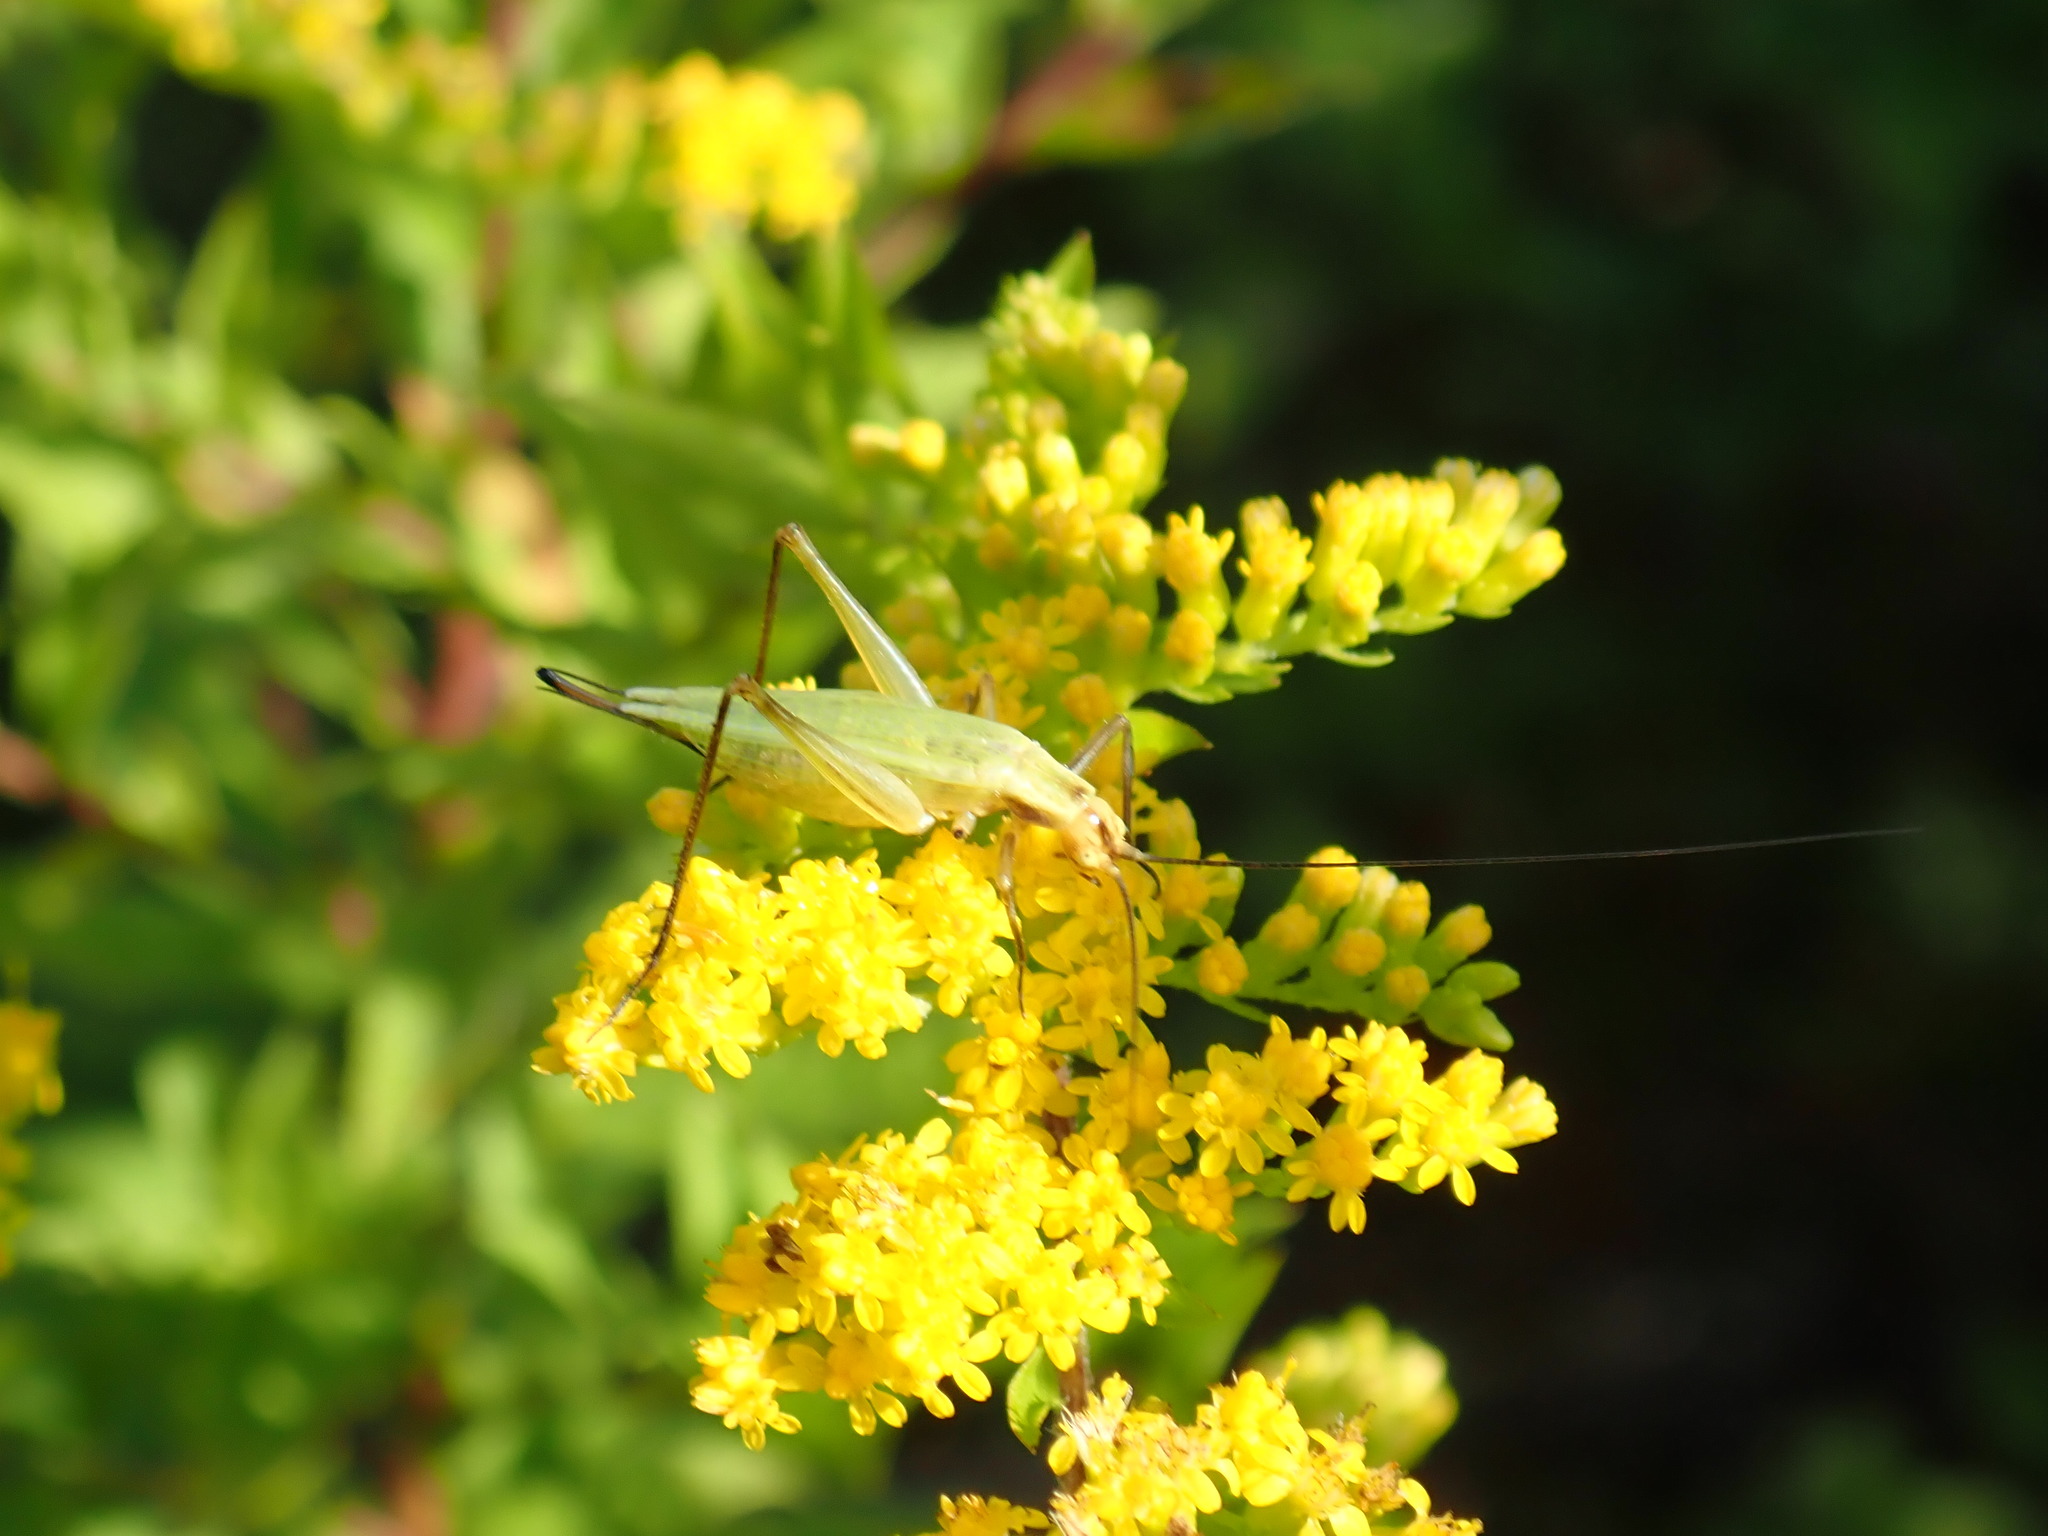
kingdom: Animalia
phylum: Arthropoda
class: Insecta
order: Orthoptera
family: Gryllidae
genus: Oecanthus
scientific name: Oecanthus nigricornis
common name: Black-horned tree cricket
